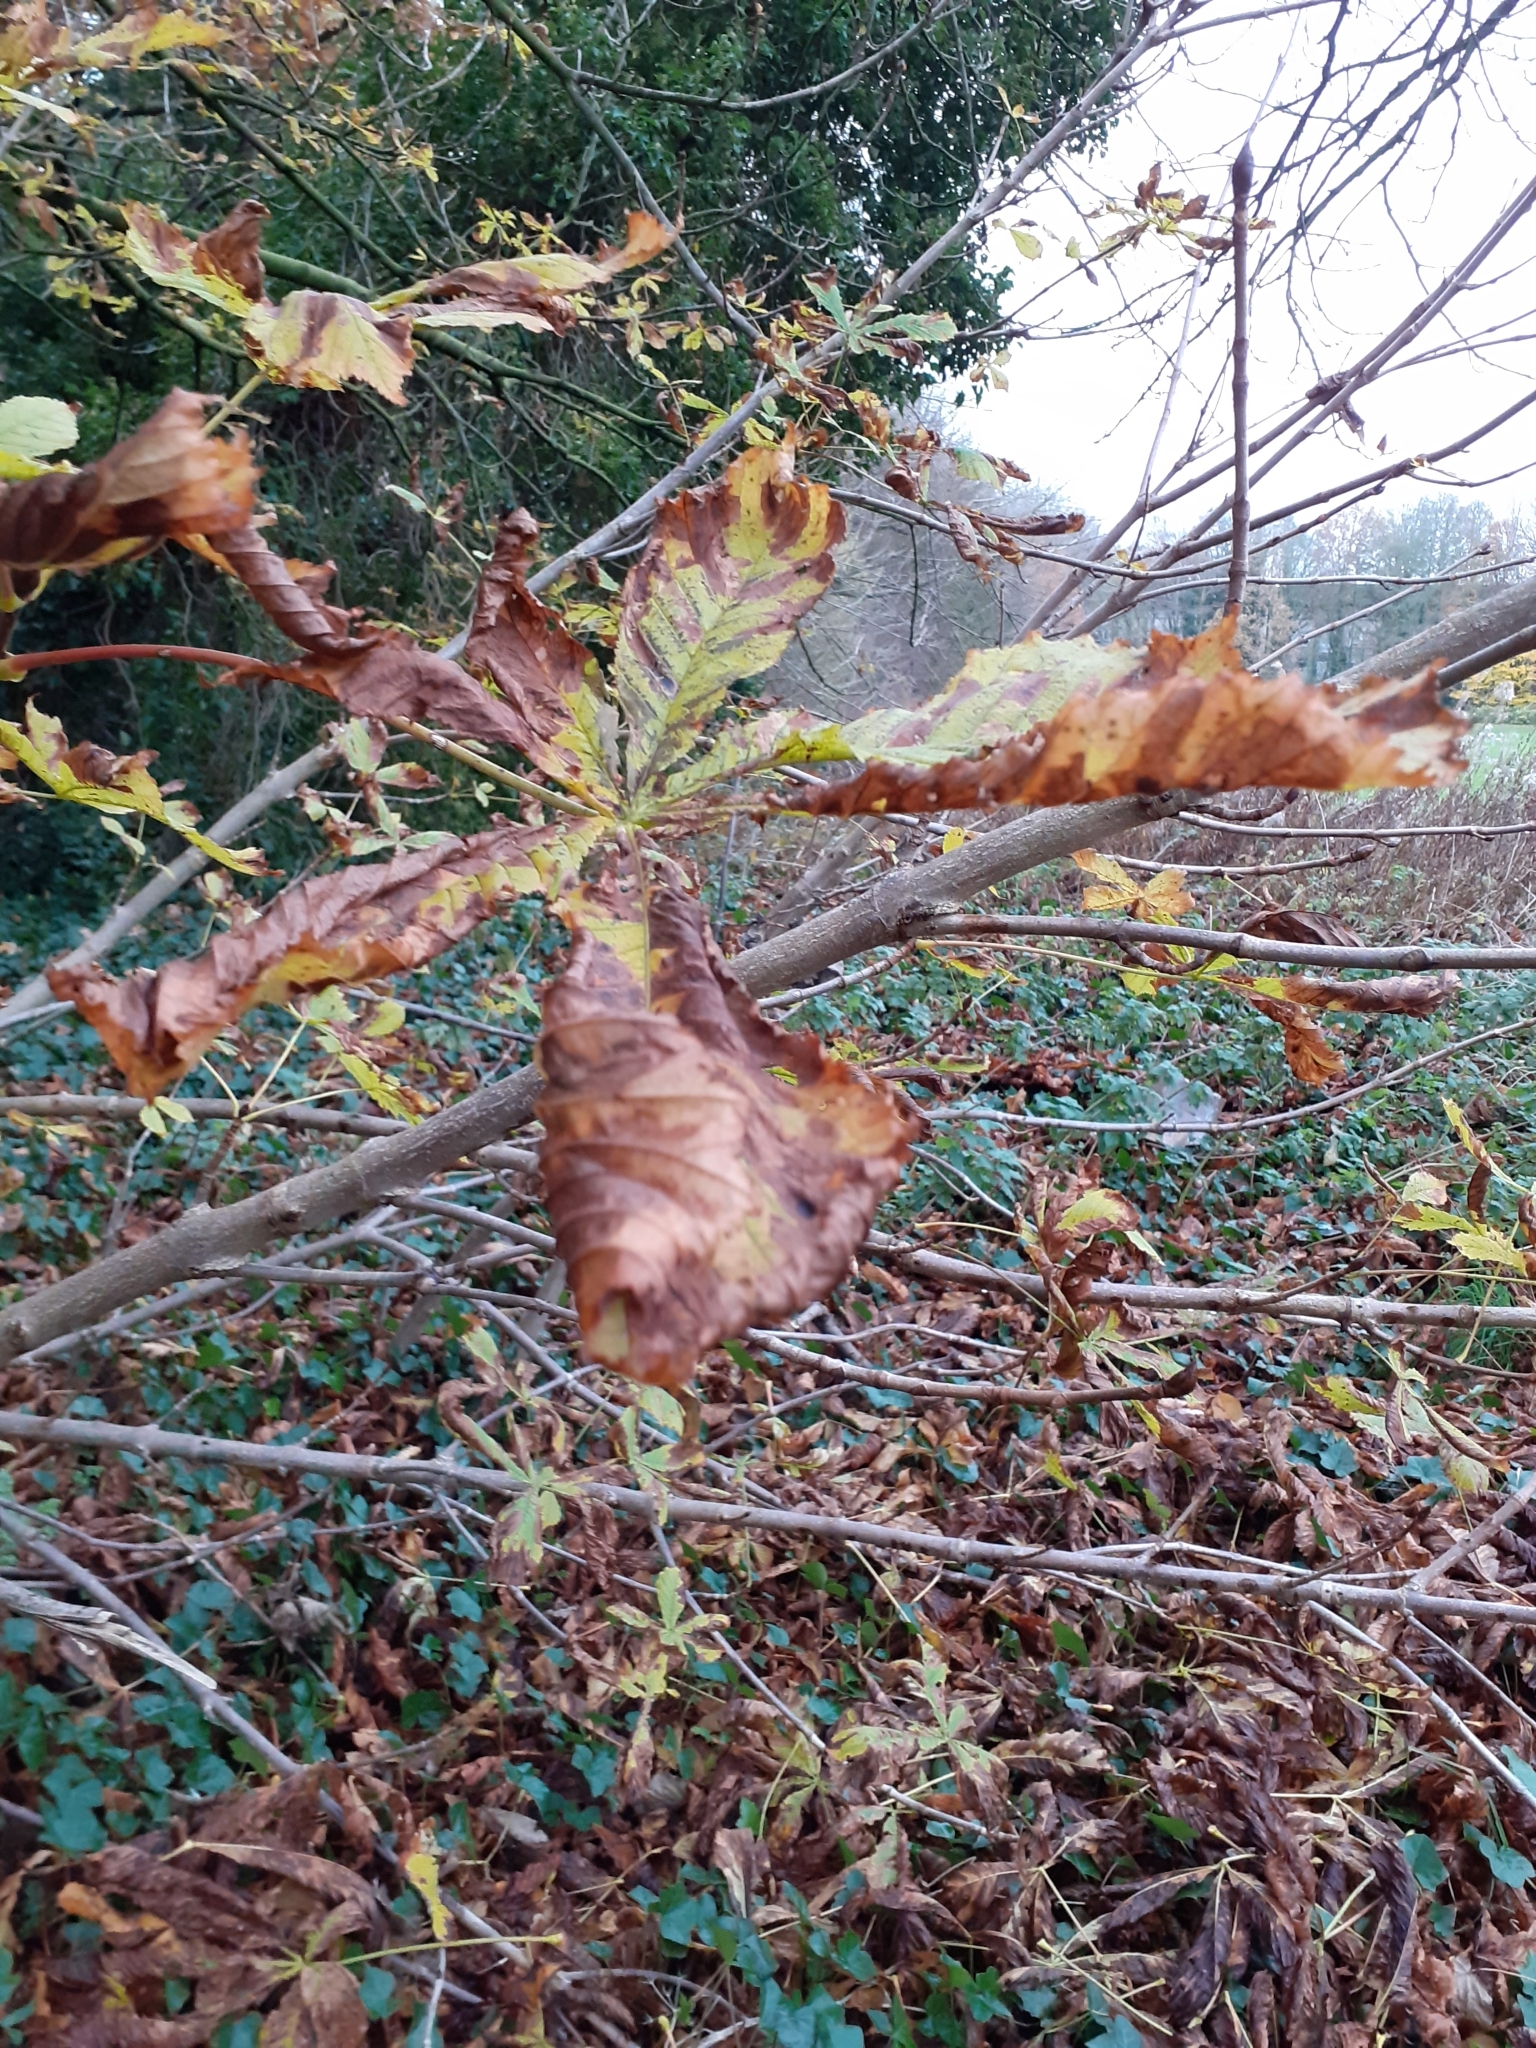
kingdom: Plantae
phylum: Tracheophyta
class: Magnoliopsida
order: Sapindales
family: Sapindaceae
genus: Aesculus
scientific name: Aesculus hippocastanum
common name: Horse-chestnut
